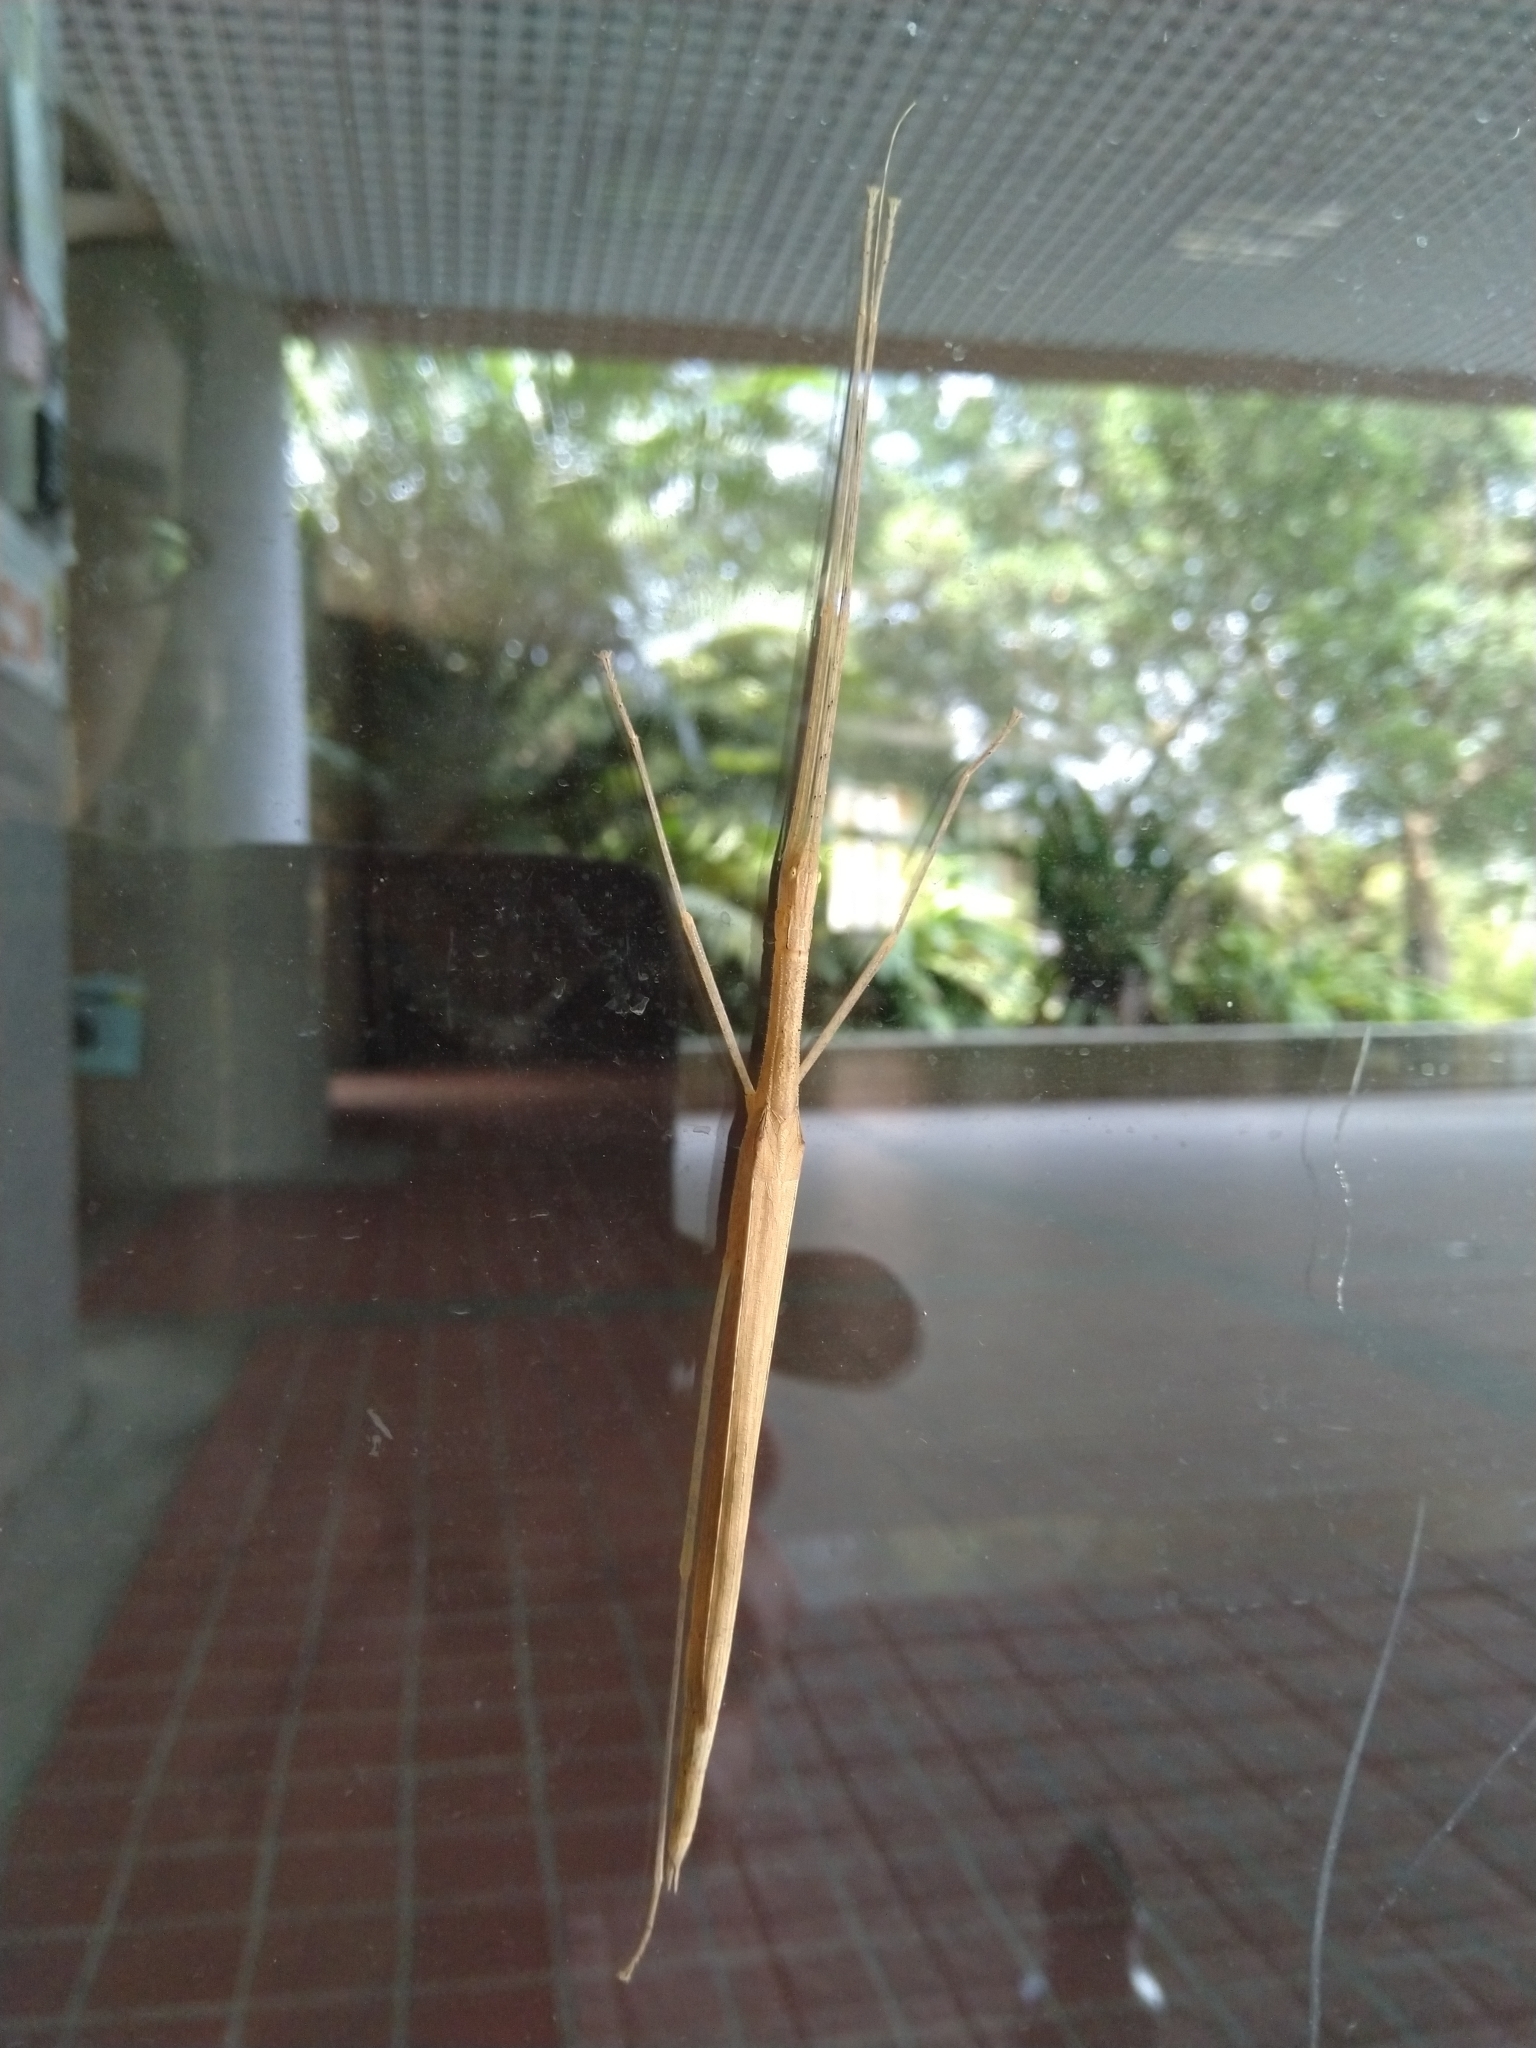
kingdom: Animalia
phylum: Arthropoda
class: Insecta
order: Phasmida
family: Lonchodidae
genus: Sipyloidea
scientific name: Sipyloidea sipylus
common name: Madagascan stick insect
